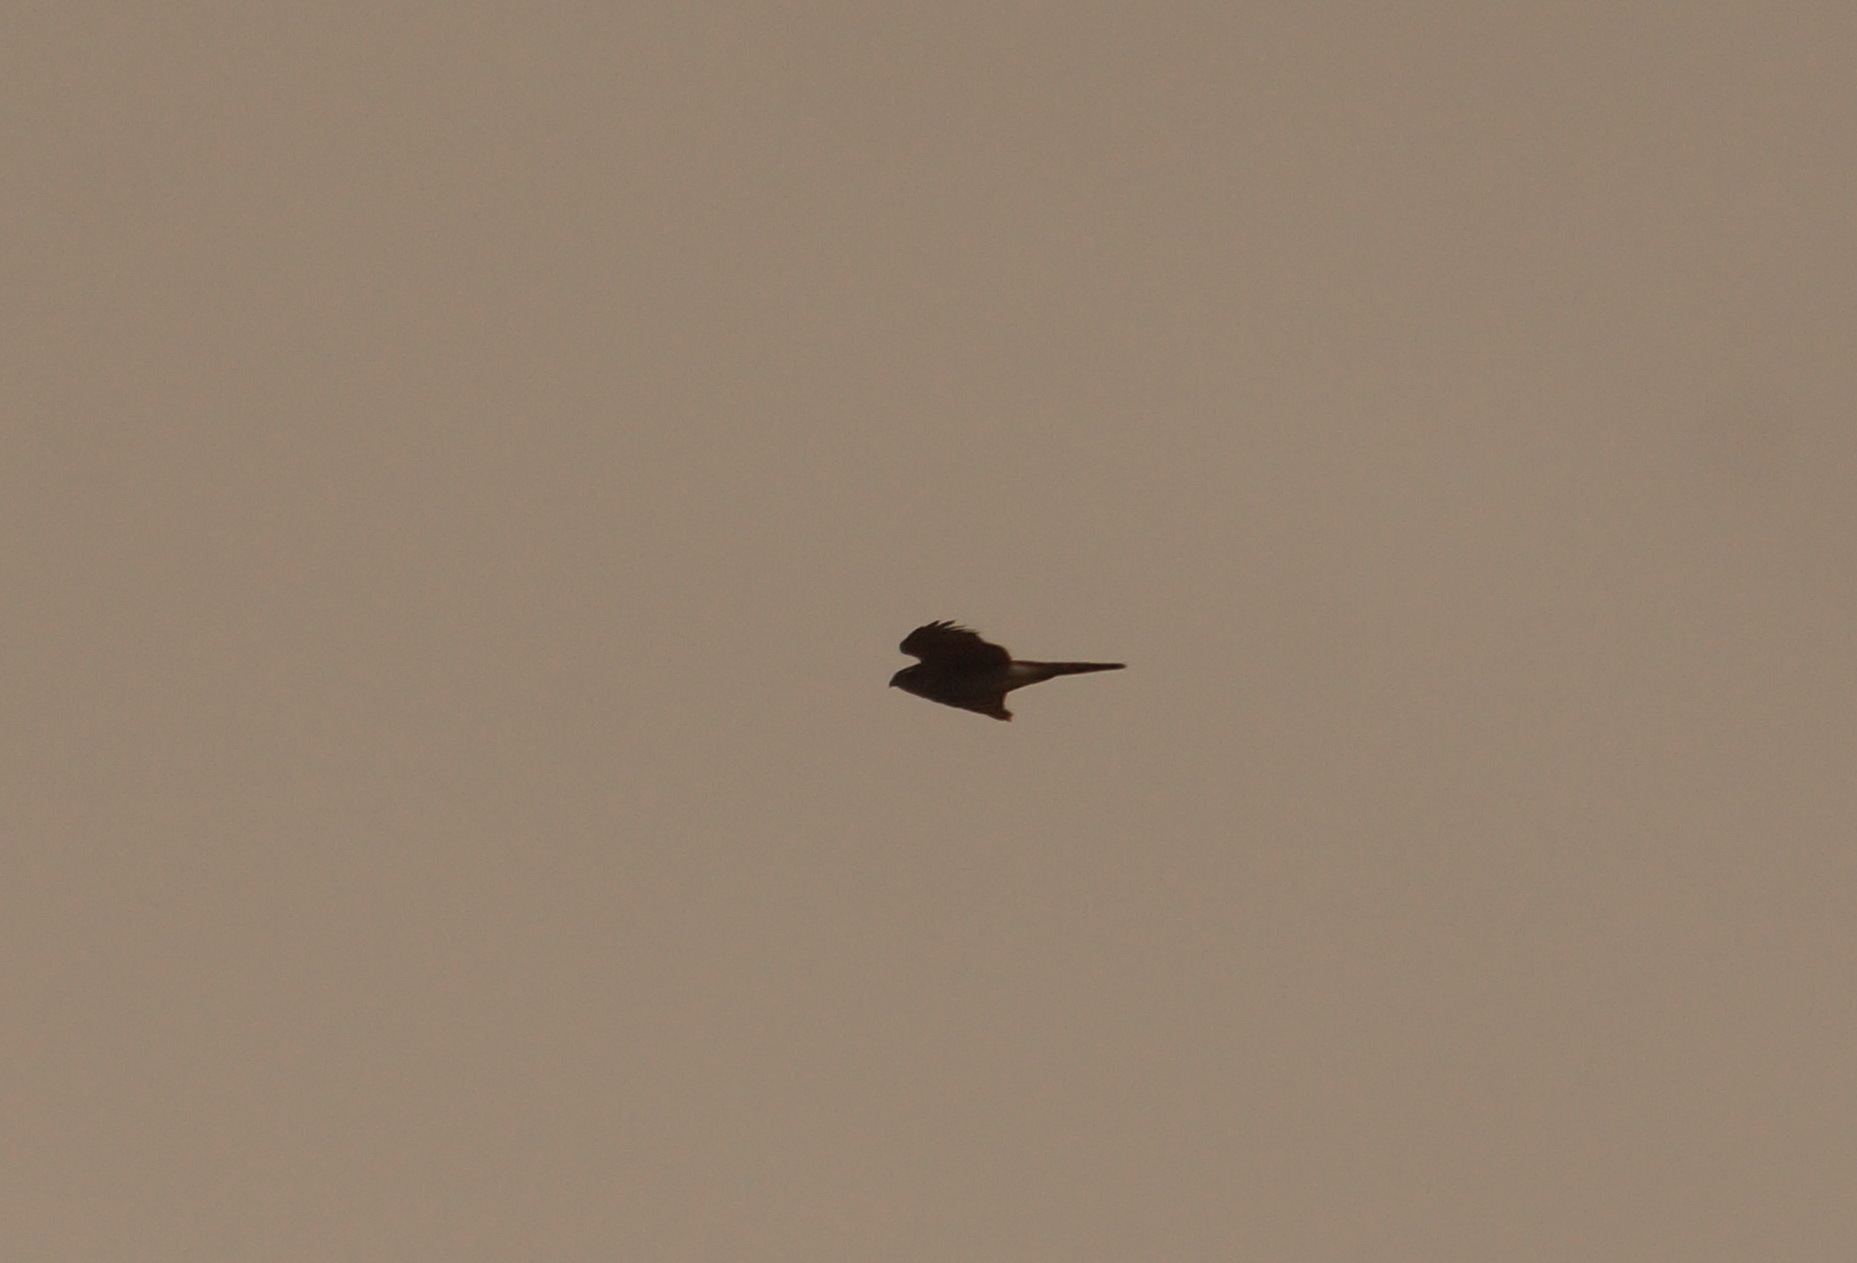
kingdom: Animalia
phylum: Chordata
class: Aves
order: Accipitriformes
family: Accipitridae
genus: Accipiter
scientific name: Accipiter nisus
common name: Eurasian sparrowhawk
